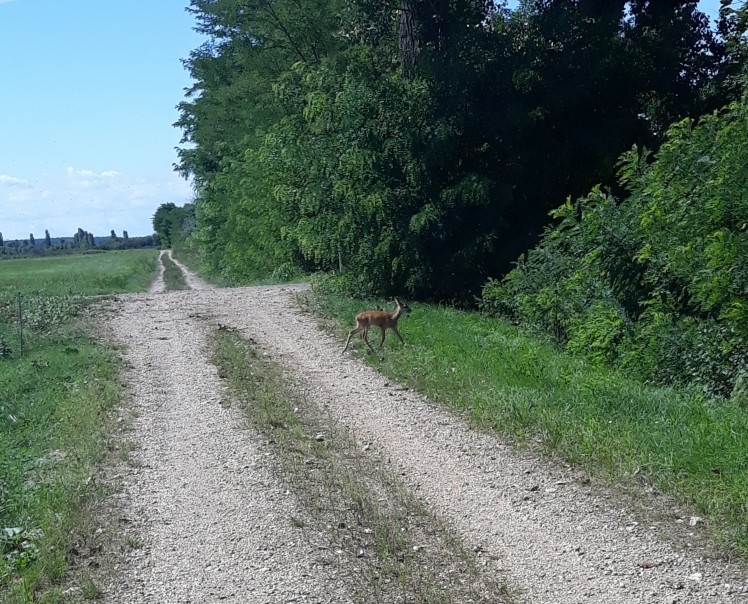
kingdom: Animalia
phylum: Chordata
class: Mammalia
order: Artiodactyla
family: Cervidae
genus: Capreolus
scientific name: Capreolus capreolus
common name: Western roe deer
